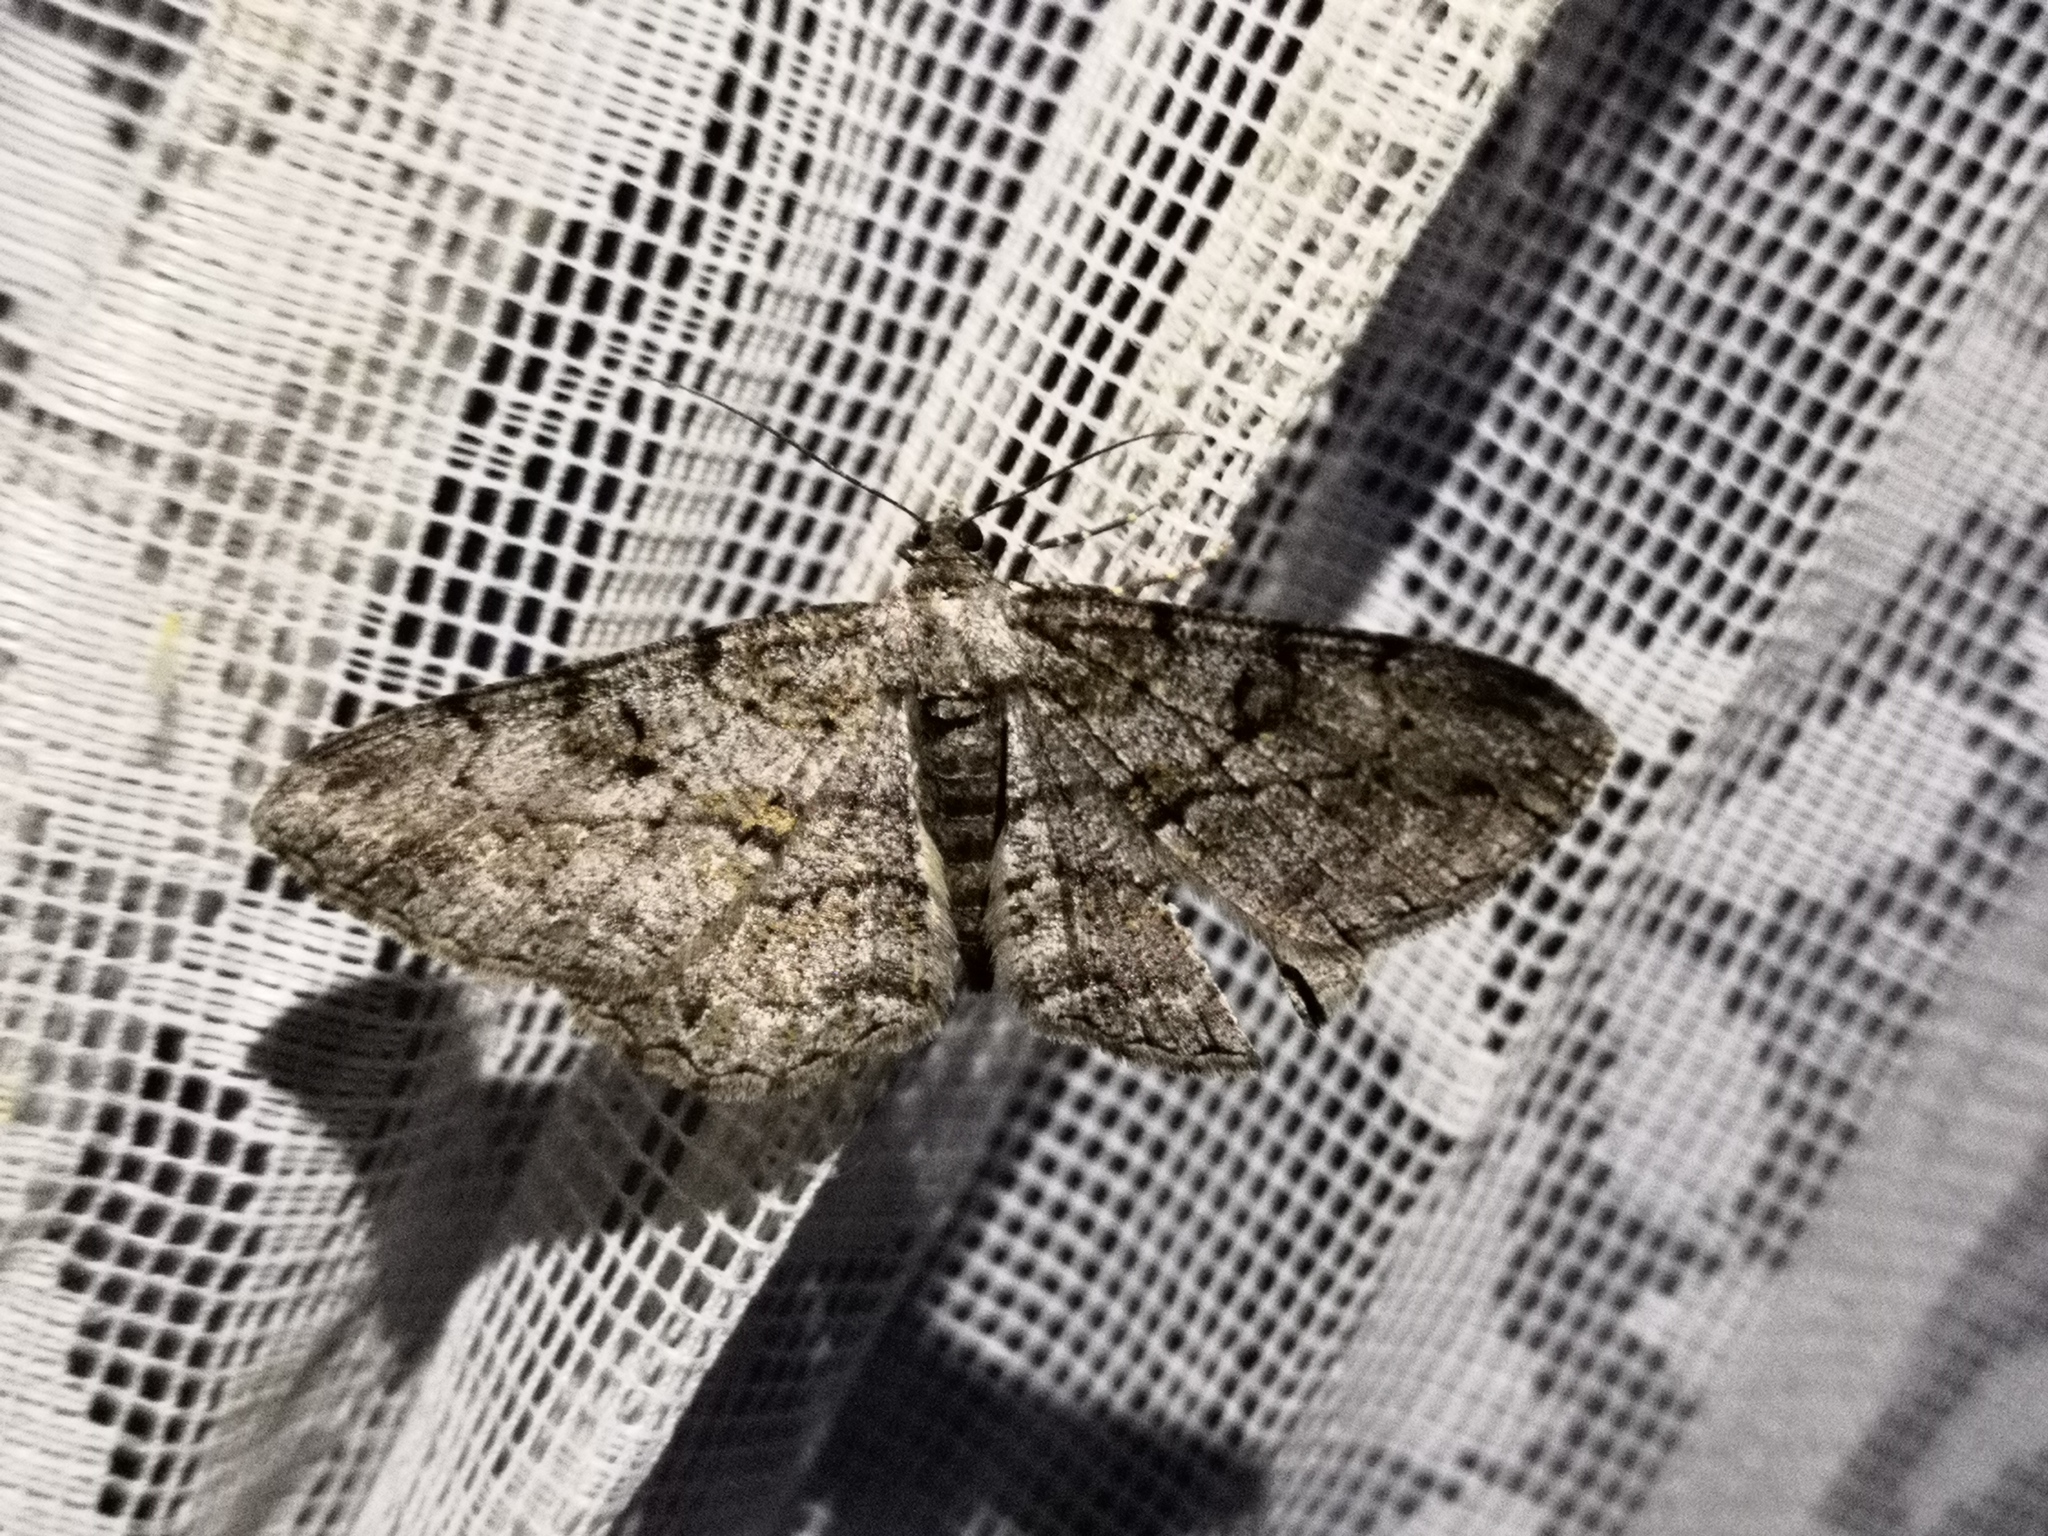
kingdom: Animalia
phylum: Arthropoda
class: Insecta
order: Lepidoptera
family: Geometridae
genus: Peribatodes
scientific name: Peribatodes rhomboidaria
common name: Willow beauty
